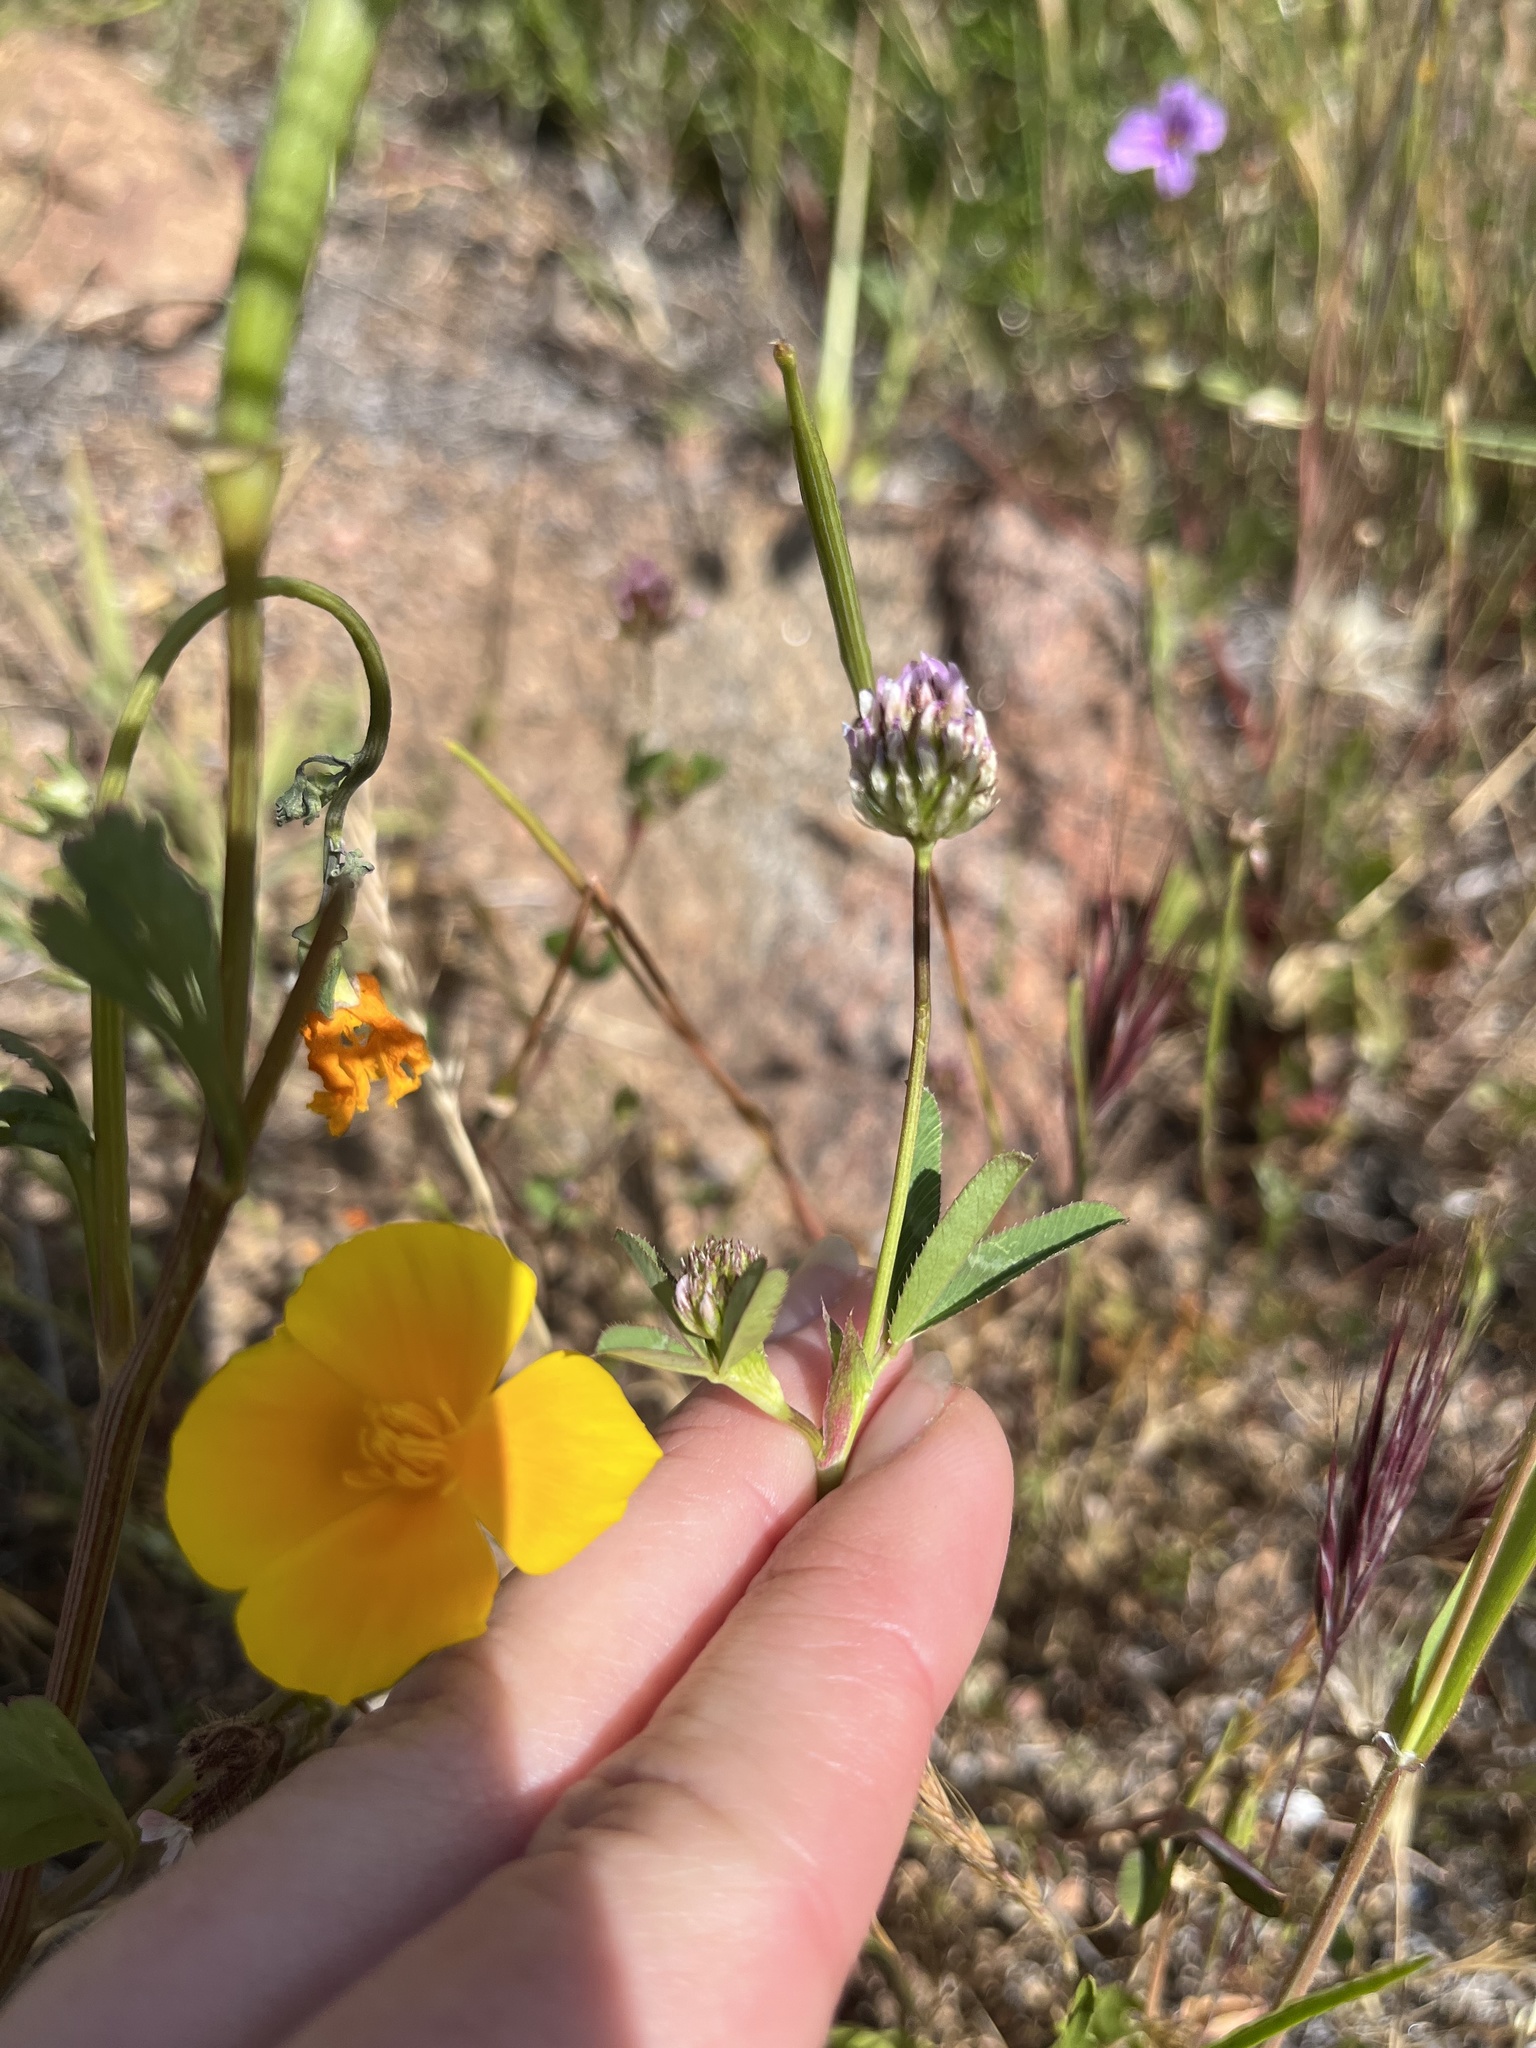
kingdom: Plantae
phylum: Tracheophyta
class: Magnoliopsida
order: Fabales
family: Fabaceae
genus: Trifolium
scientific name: Trifolium ciliolatum
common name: Foothill clover
